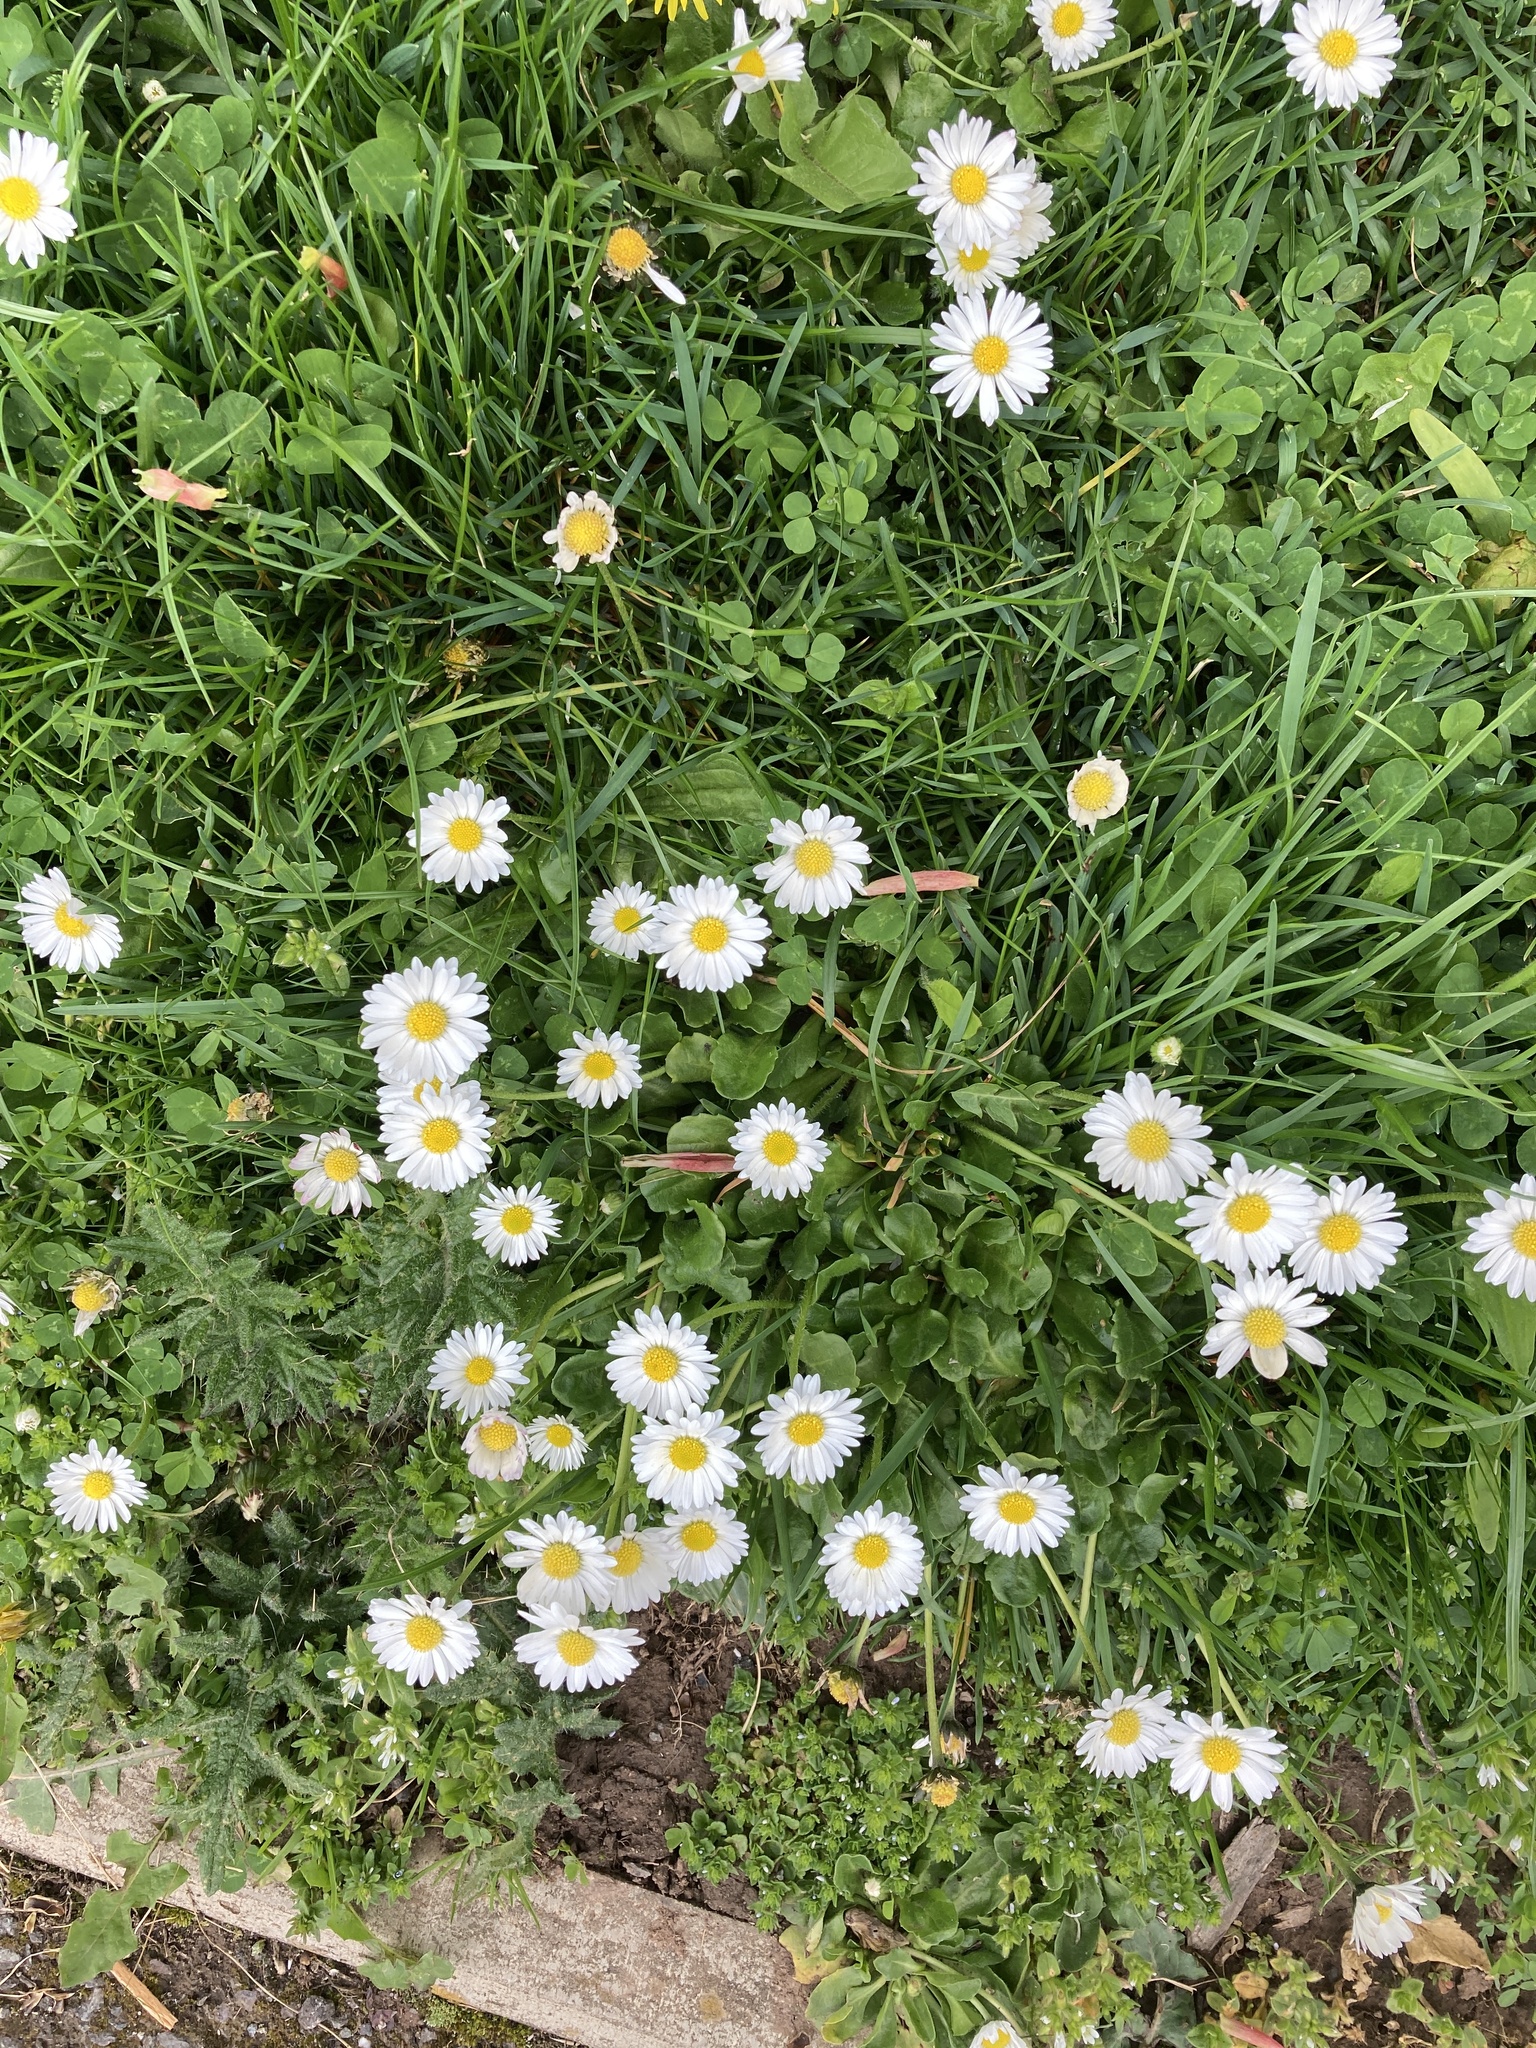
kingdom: Plantae
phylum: Tracheophyta
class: Magnoliopsida
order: Asterales
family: Asteraceae
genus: Bellis
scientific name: Bellis perennis
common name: Lawndaisy
